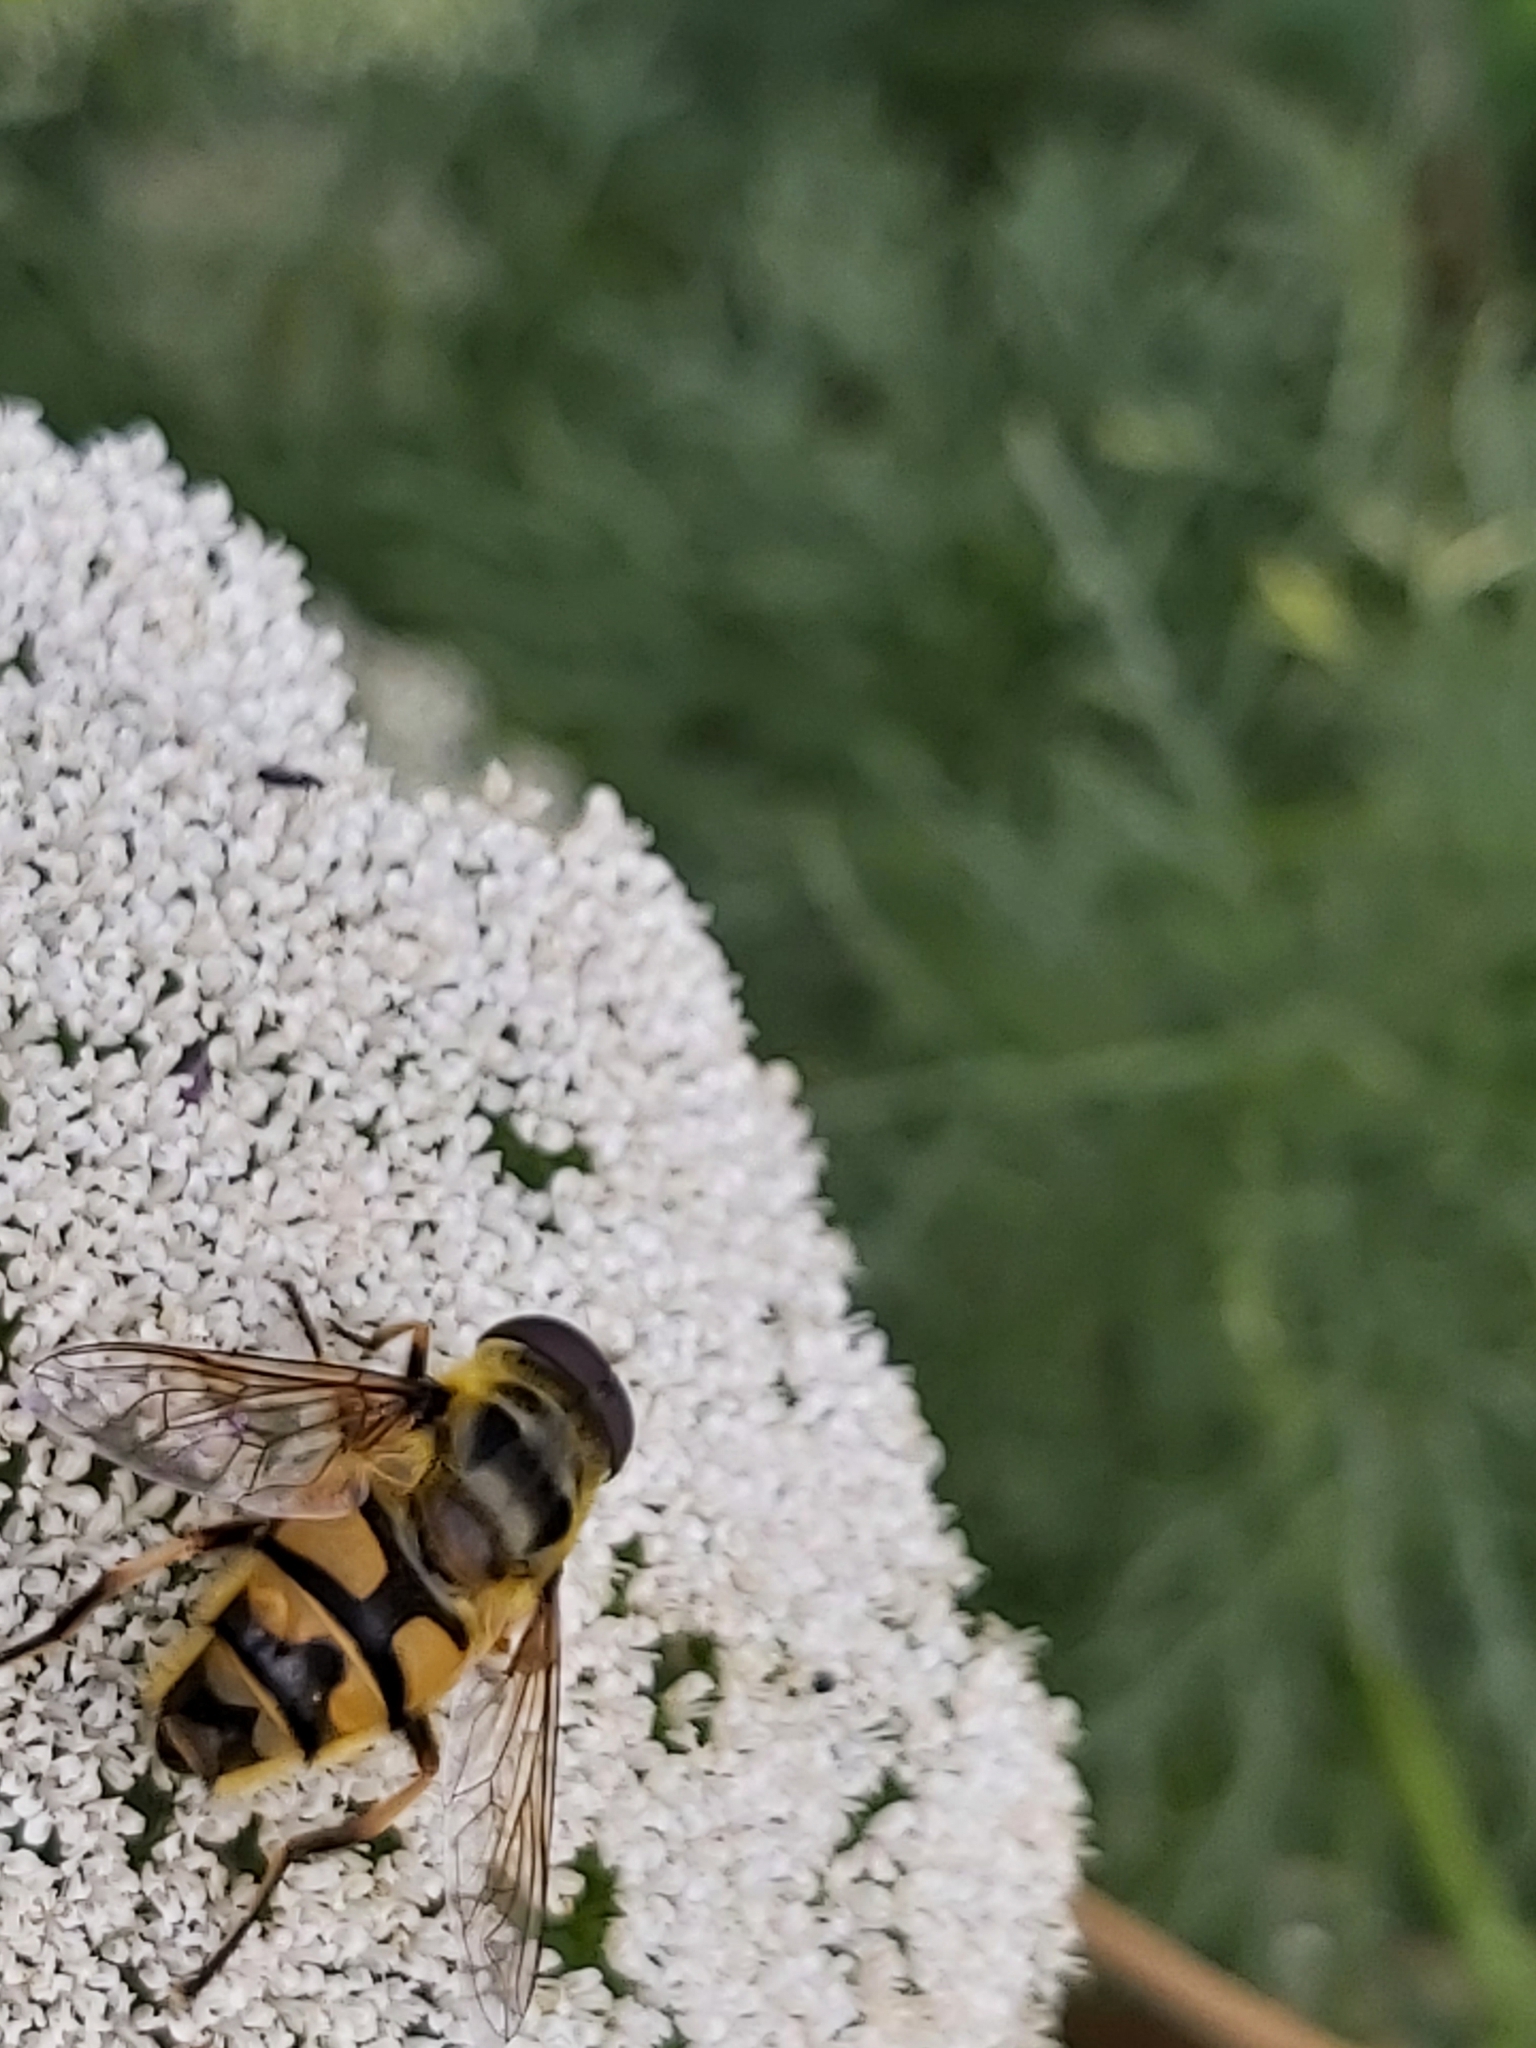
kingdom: Animalia
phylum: Arthropoda
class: Insecta
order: Diptera
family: Syrphidae
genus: Myathropa
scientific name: Myathropa florea
